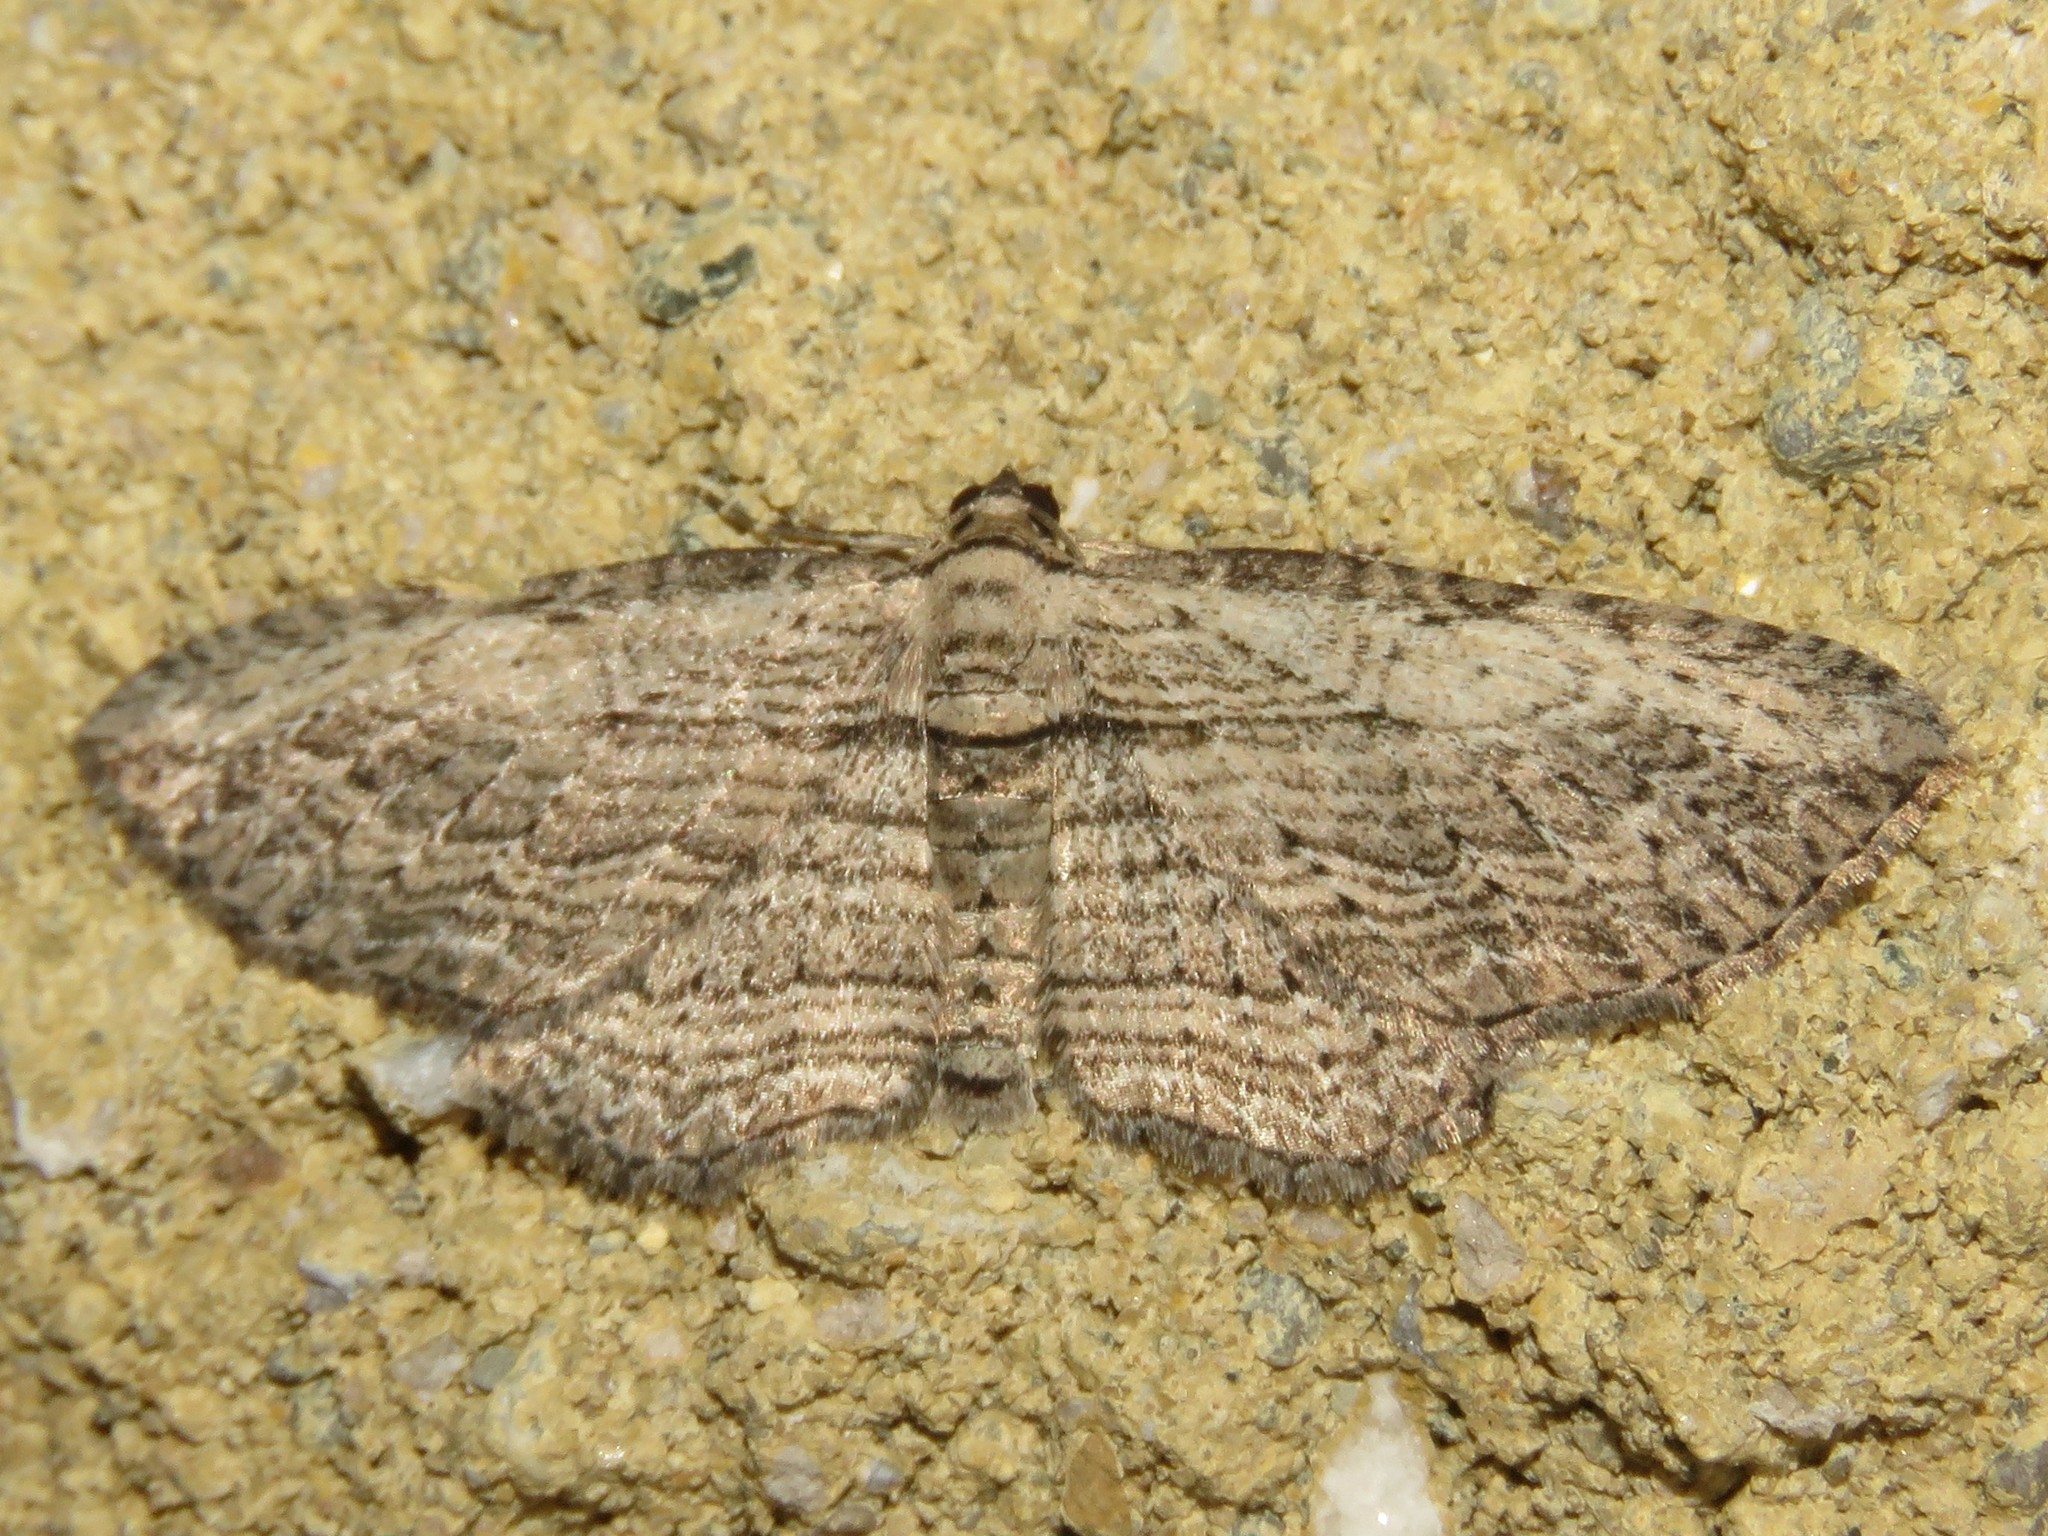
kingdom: Animalia
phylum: Arthropoda
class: Insecta
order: Lepidoptera
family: Geometridae
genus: Horisme
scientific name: Horisme intestinata
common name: Brown bark carpet
